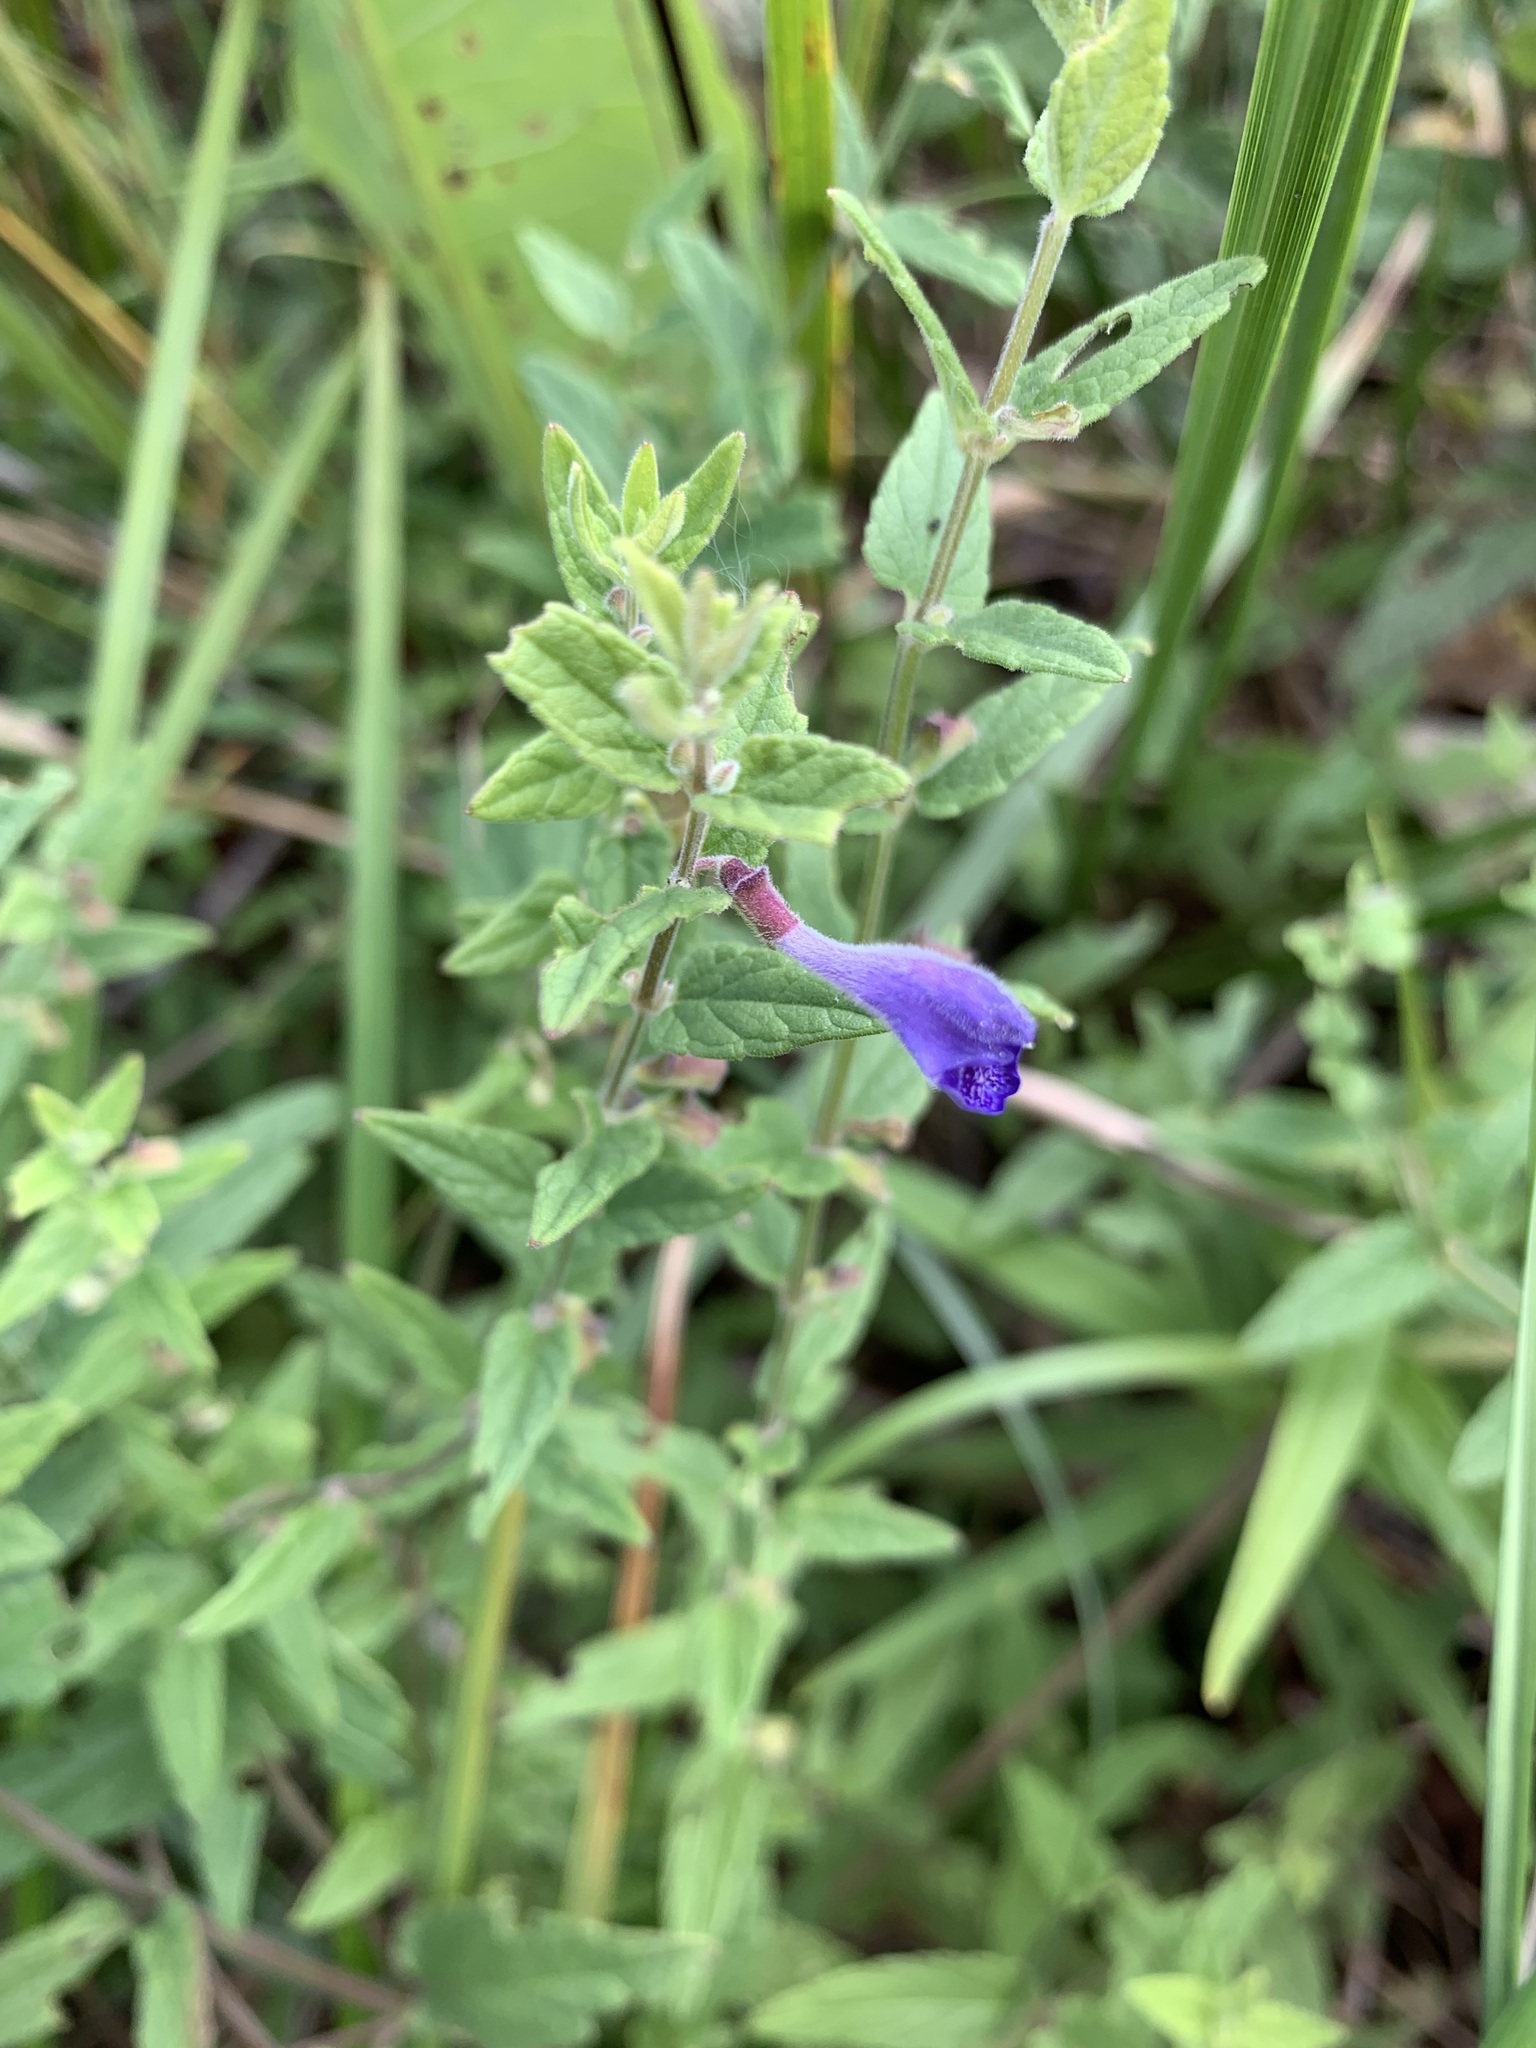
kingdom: Plantae
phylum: Tracheophyta
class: Magnoliopsida
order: Lamiales
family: Lamiaceae
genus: Scutellaria
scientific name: Scutellaria galericulata
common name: Skullcap
